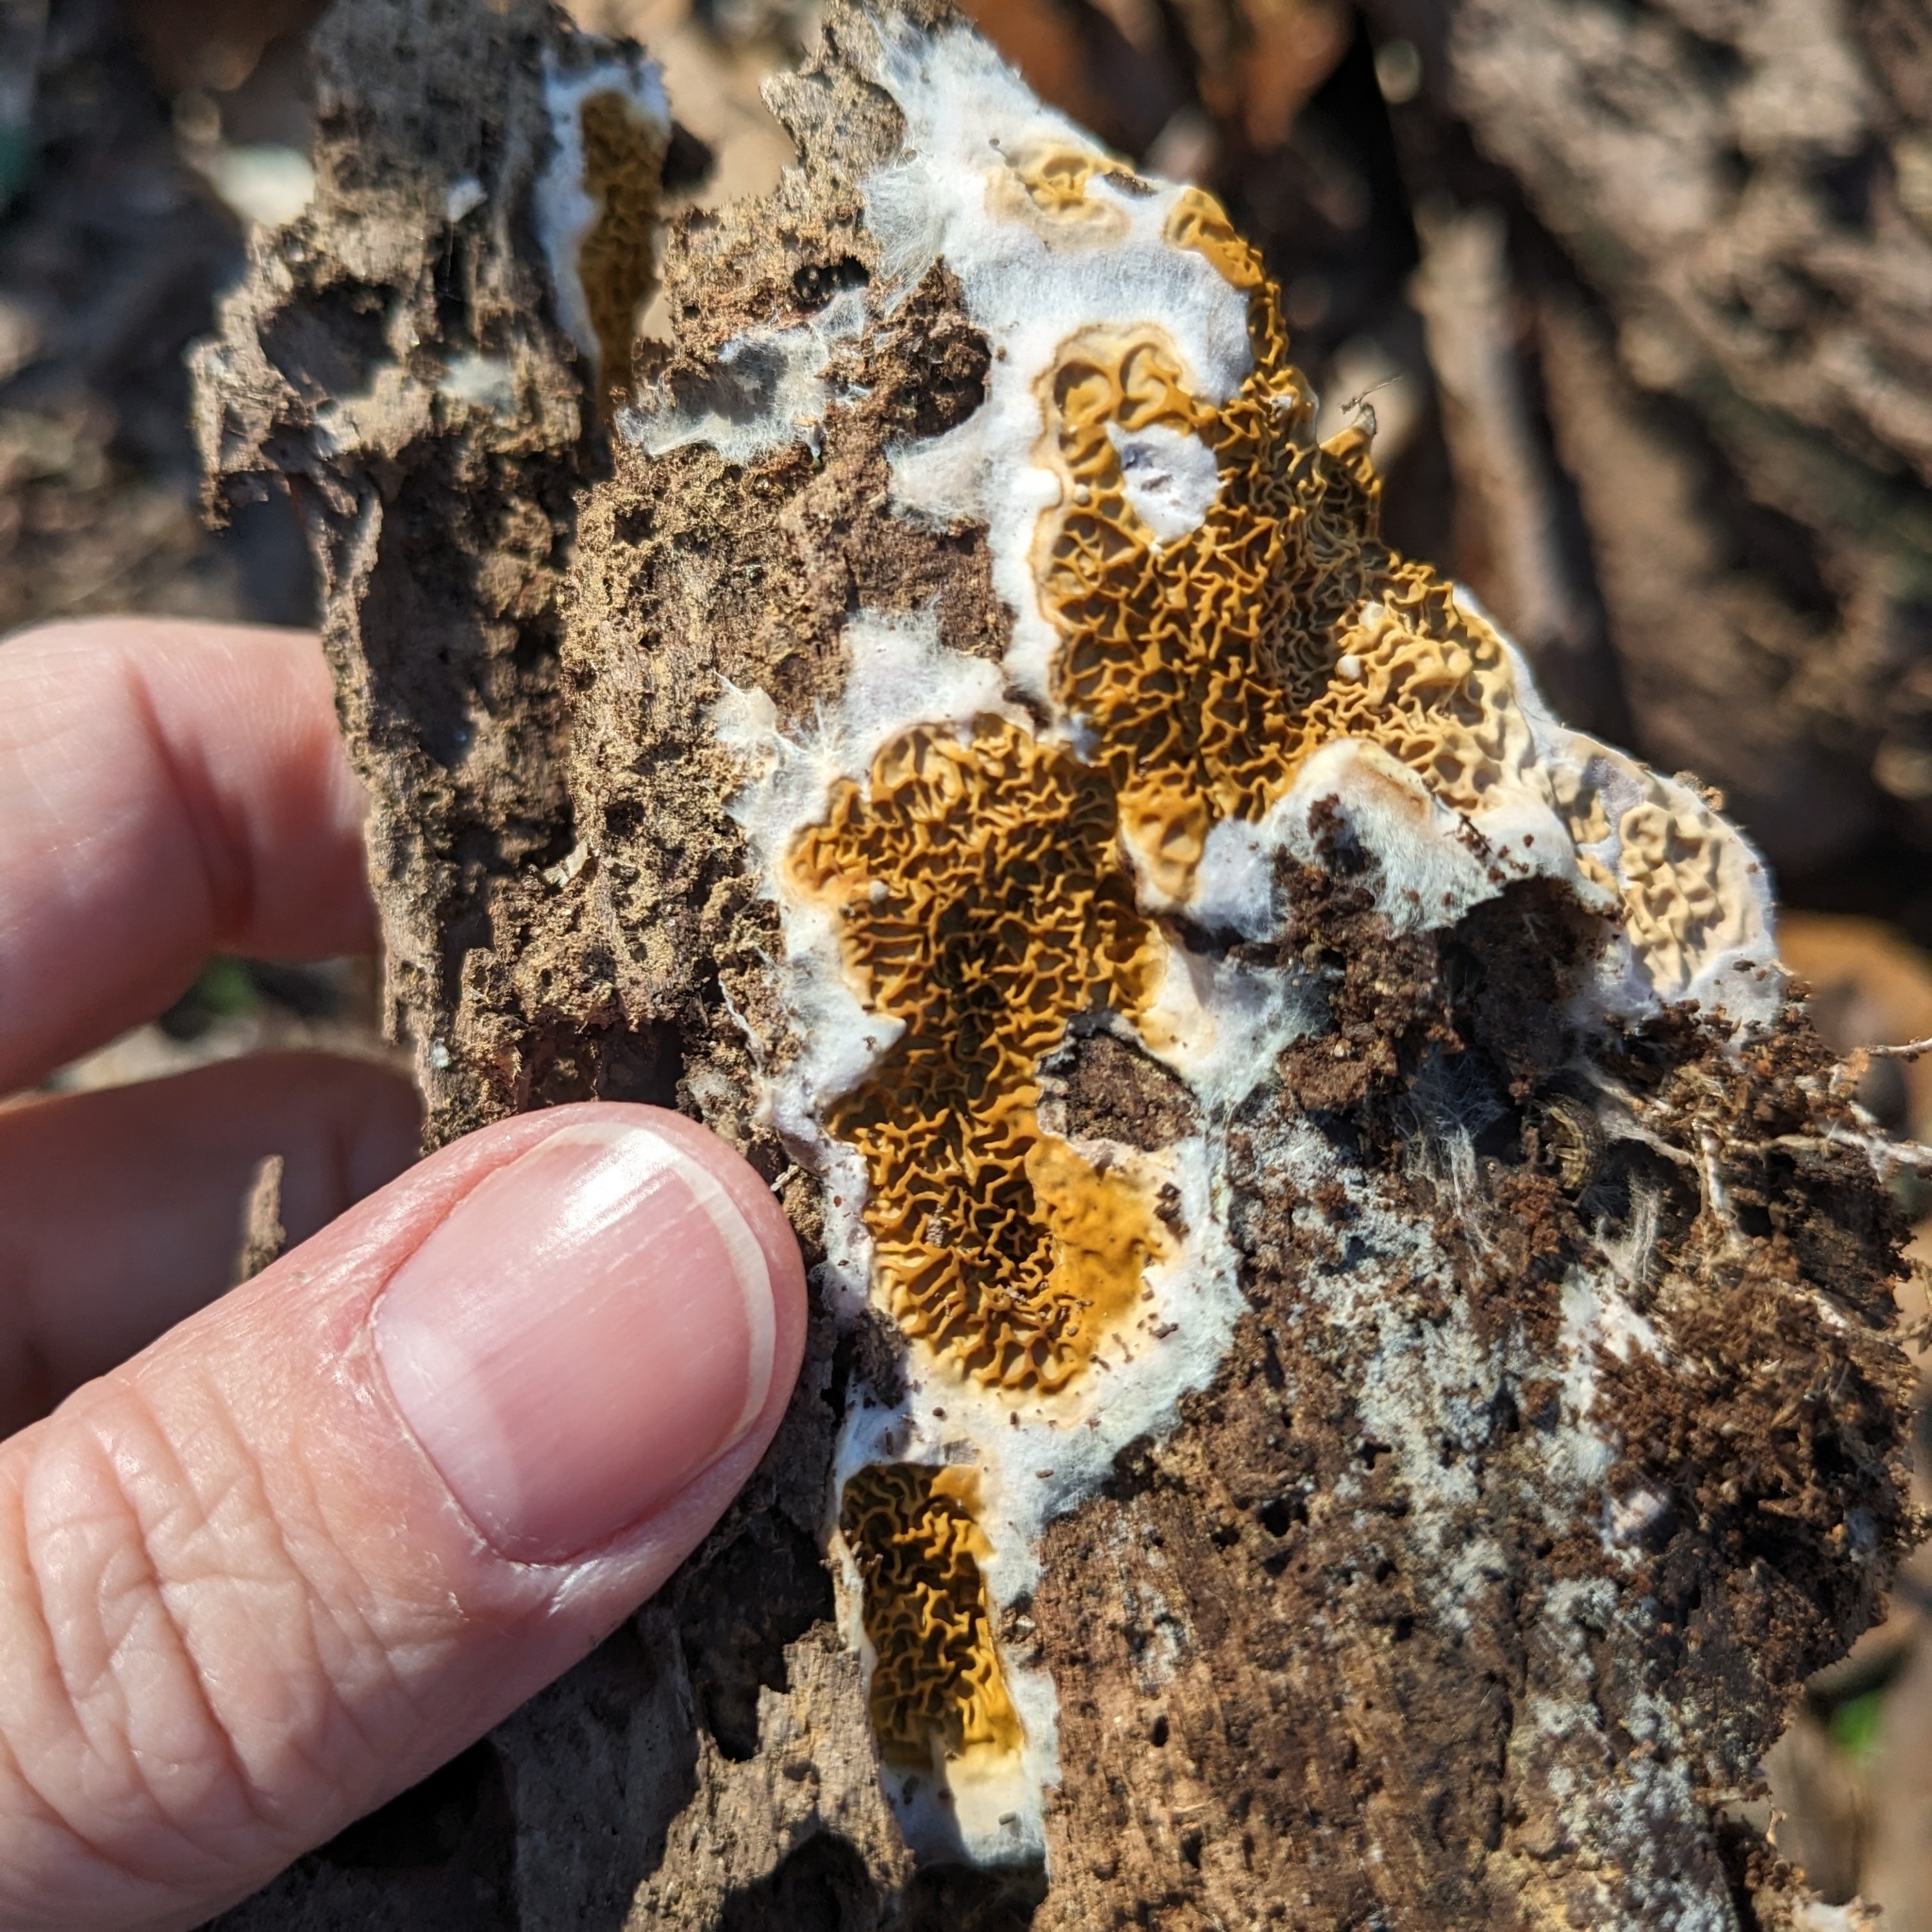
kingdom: Fungi
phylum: Basidiomycota
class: Agaricomycetes
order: Boletales
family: Serpulaceae
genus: Serpula
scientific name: Serpula himantioides
